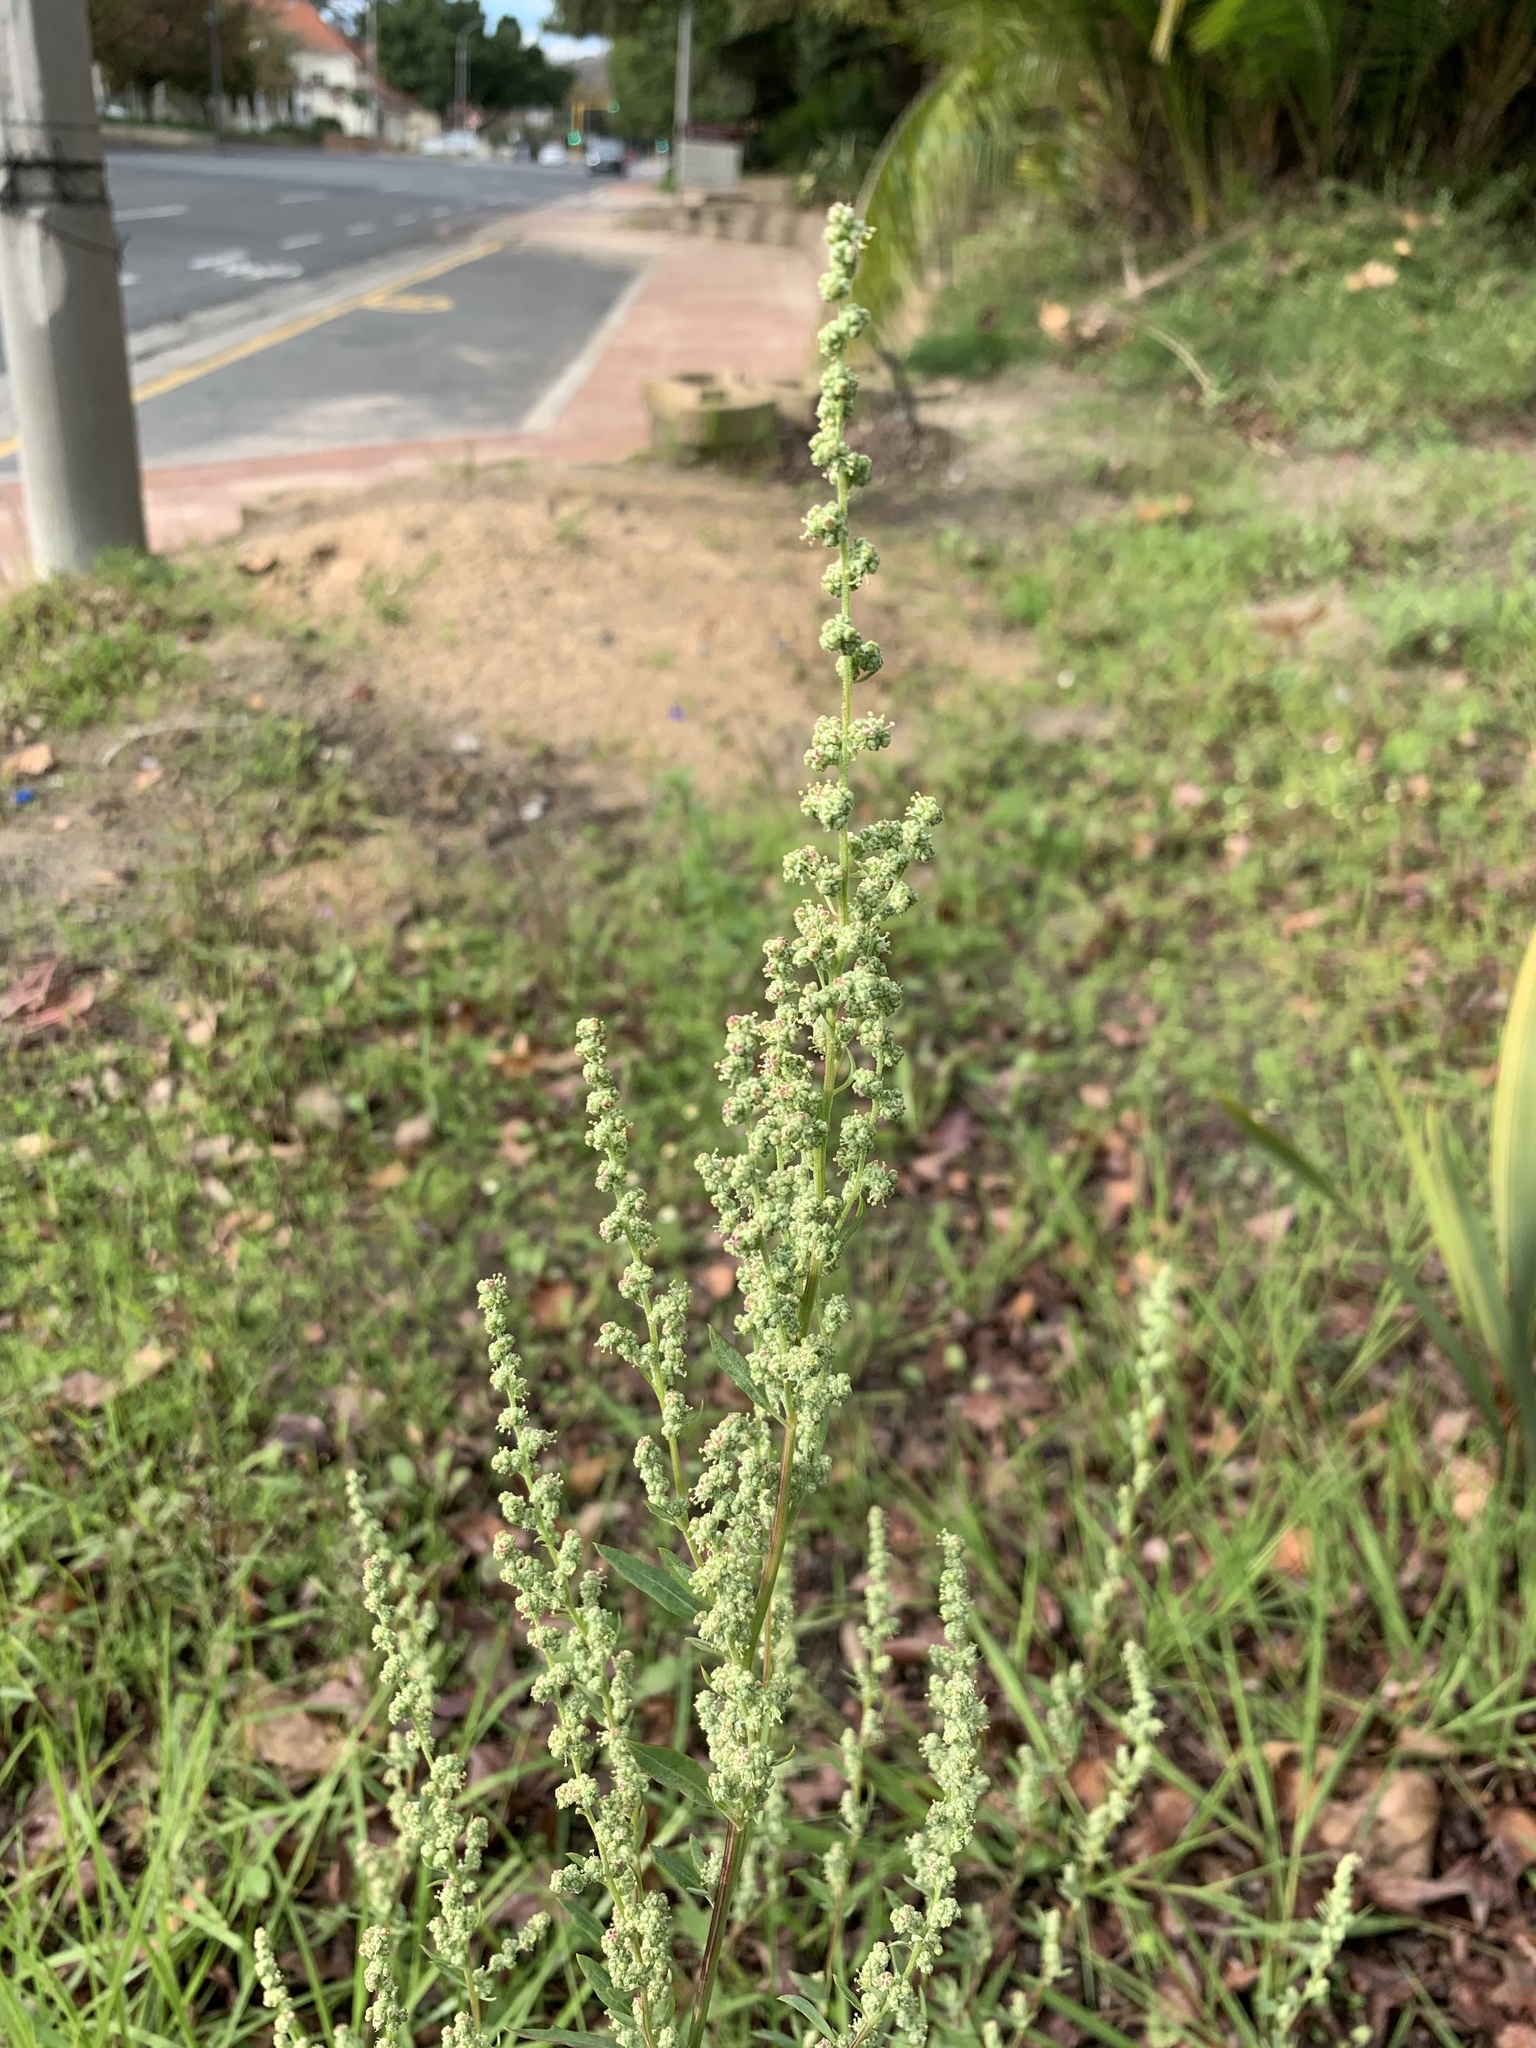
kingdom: Plantae
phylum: Tracheophyta
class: Magnoliopsida
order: Caryophyllales
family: Amaranthaceae
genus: Chenopodium
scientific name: Chenopodium album
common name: Fat-hen
